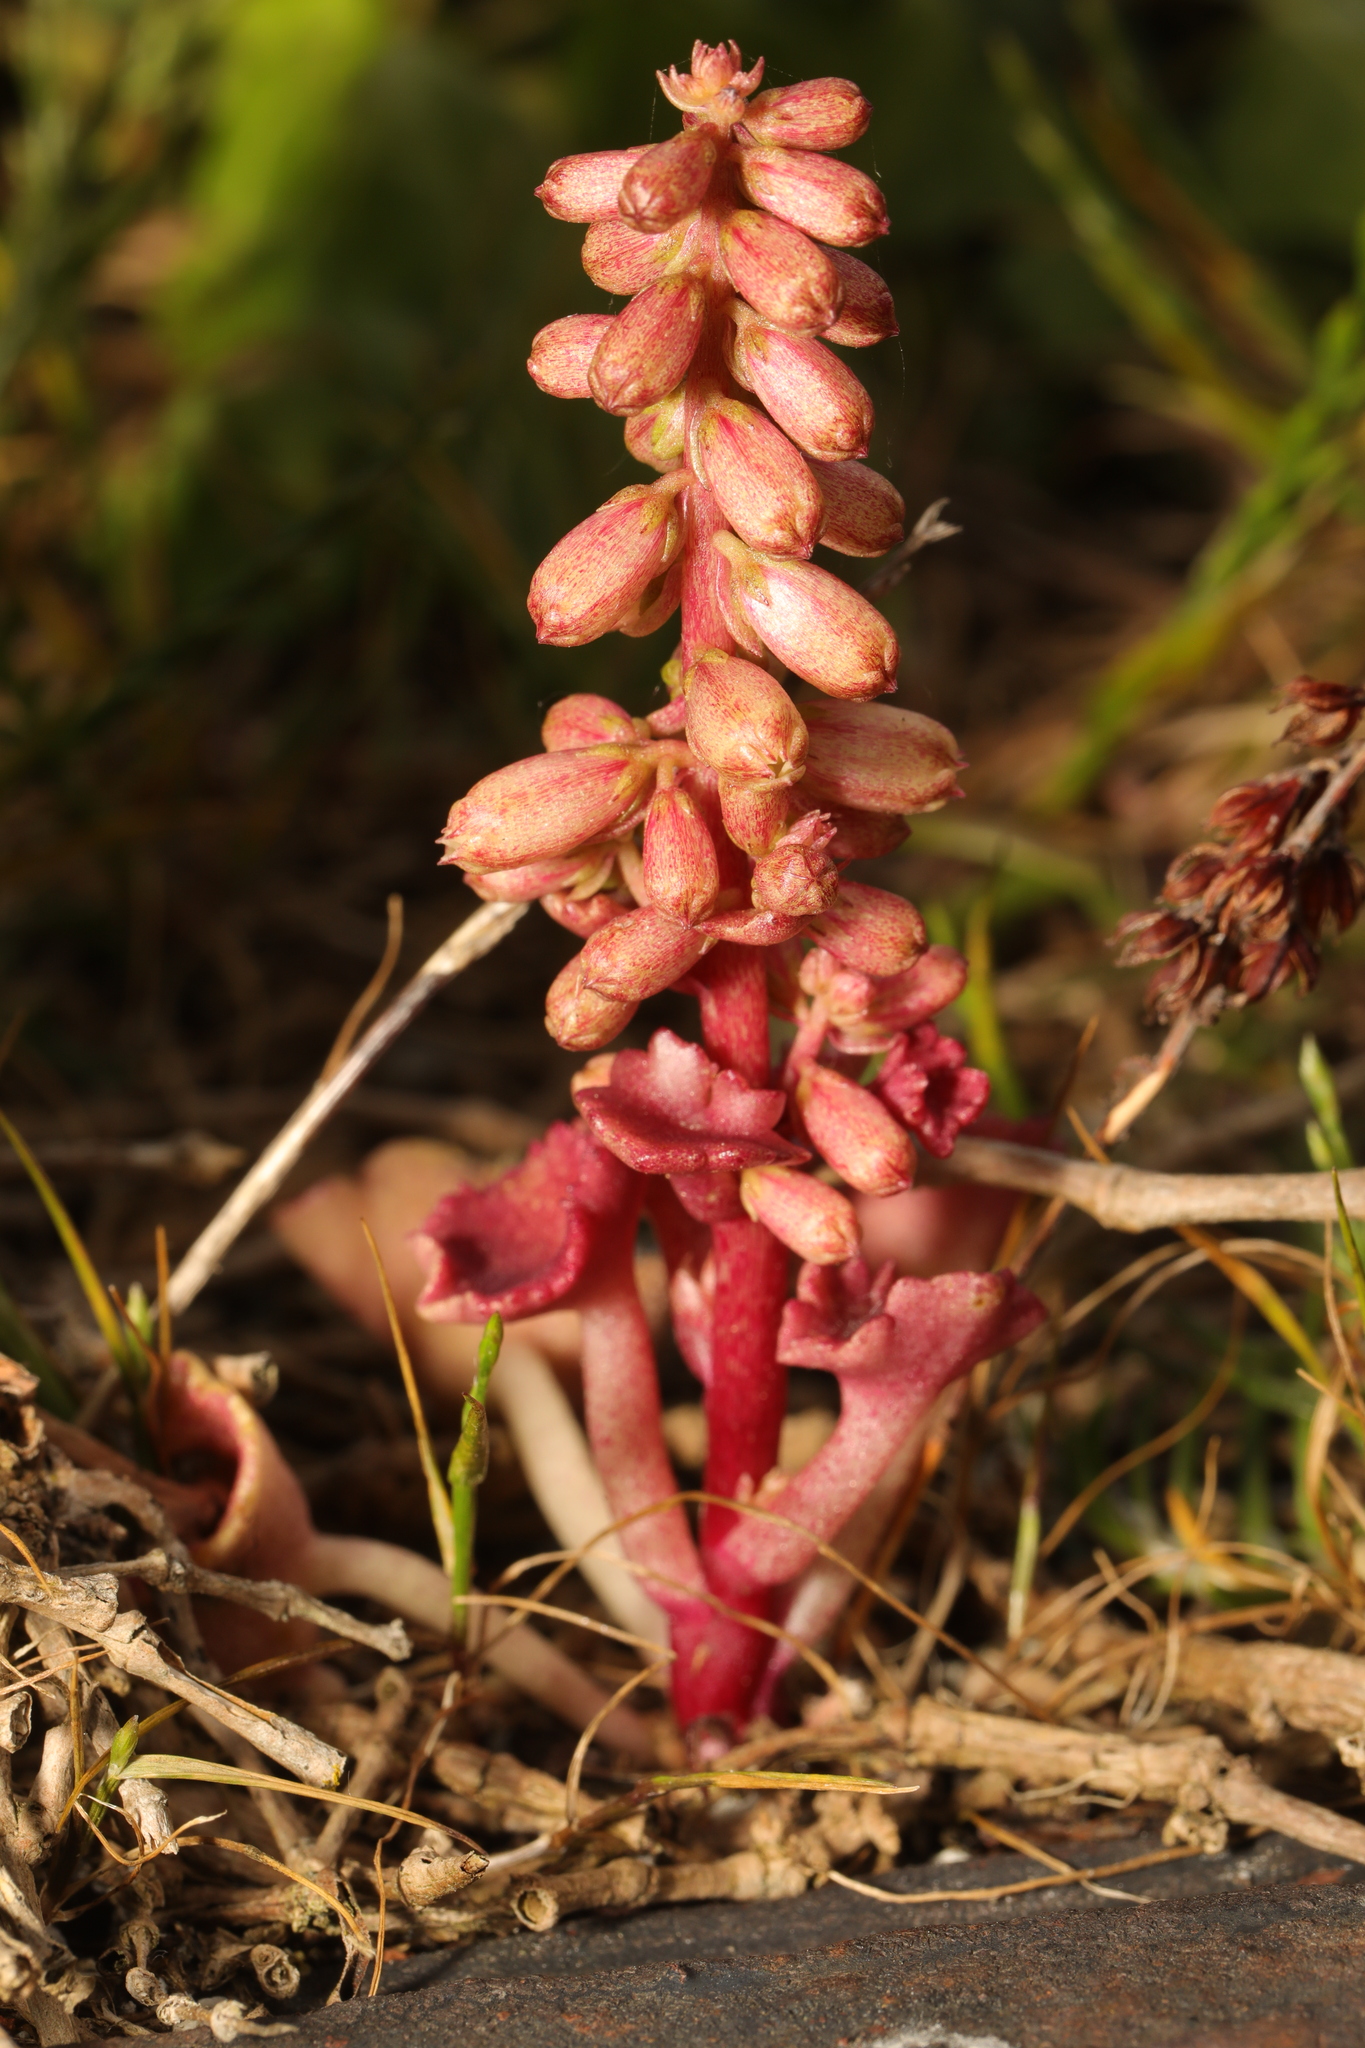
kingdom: Plantae
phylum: Tracheophyta
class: Magnoliopsida
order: Saxifragales
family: Crassulaceae
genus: Umbilicus
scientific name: Umbilicus rupestris
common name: Navelwort
